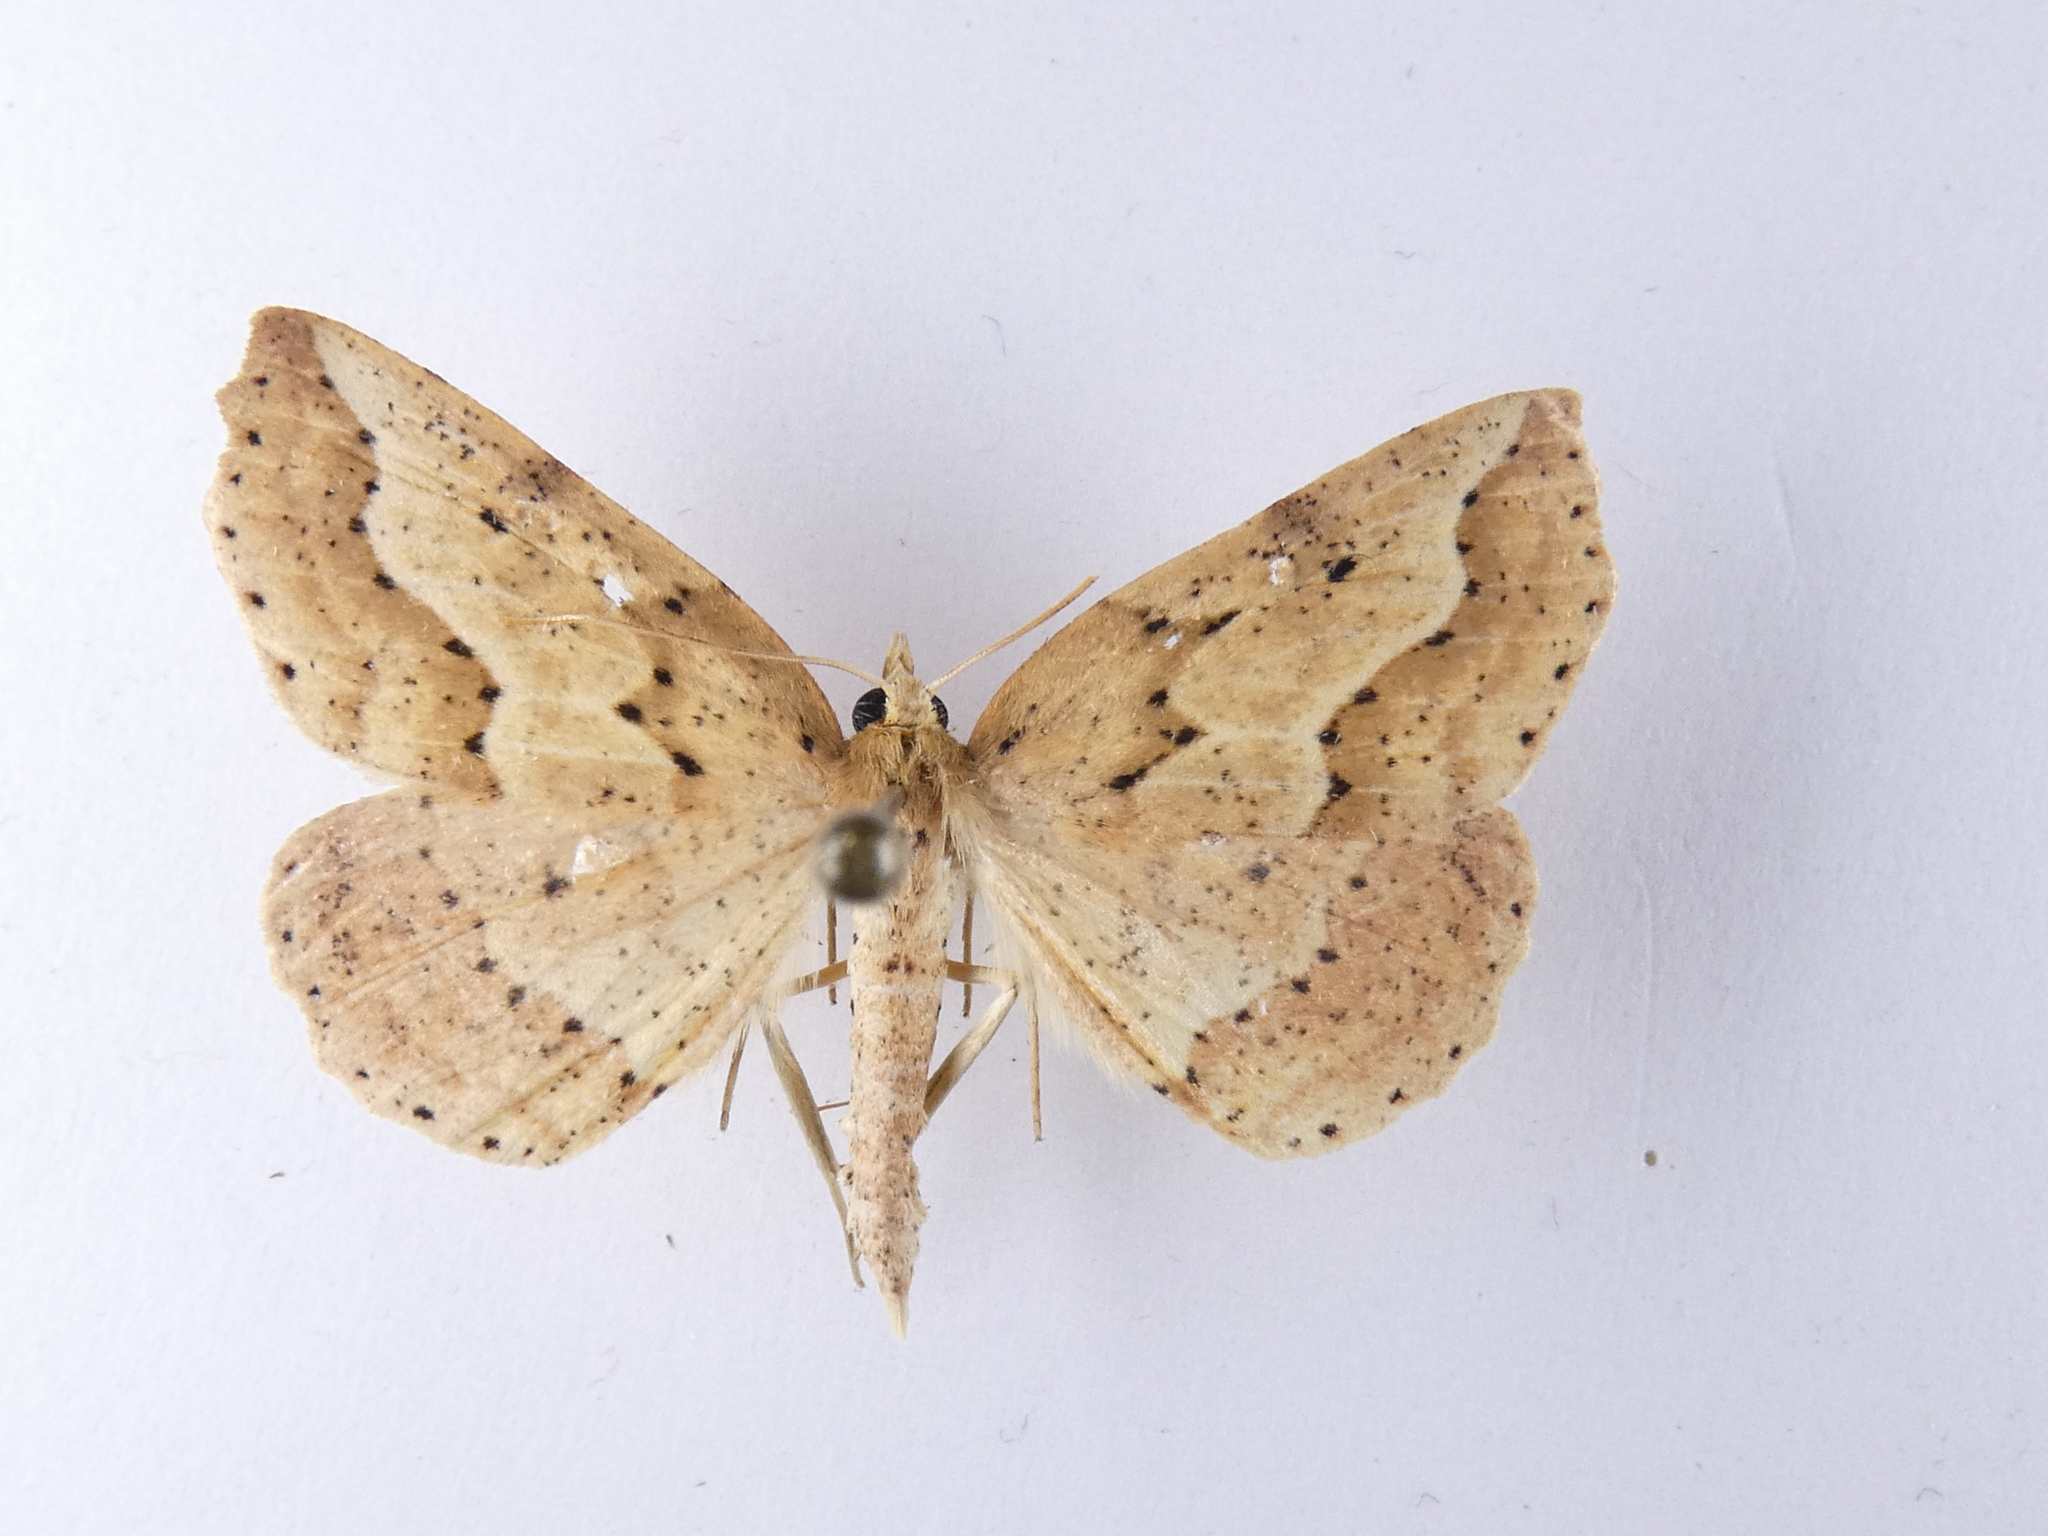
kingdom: Animalia
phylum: Arthropoda
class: Insecta
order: Lepidoptera
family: Geometridae
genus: Ischalis
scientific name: Ischalis variabilis
